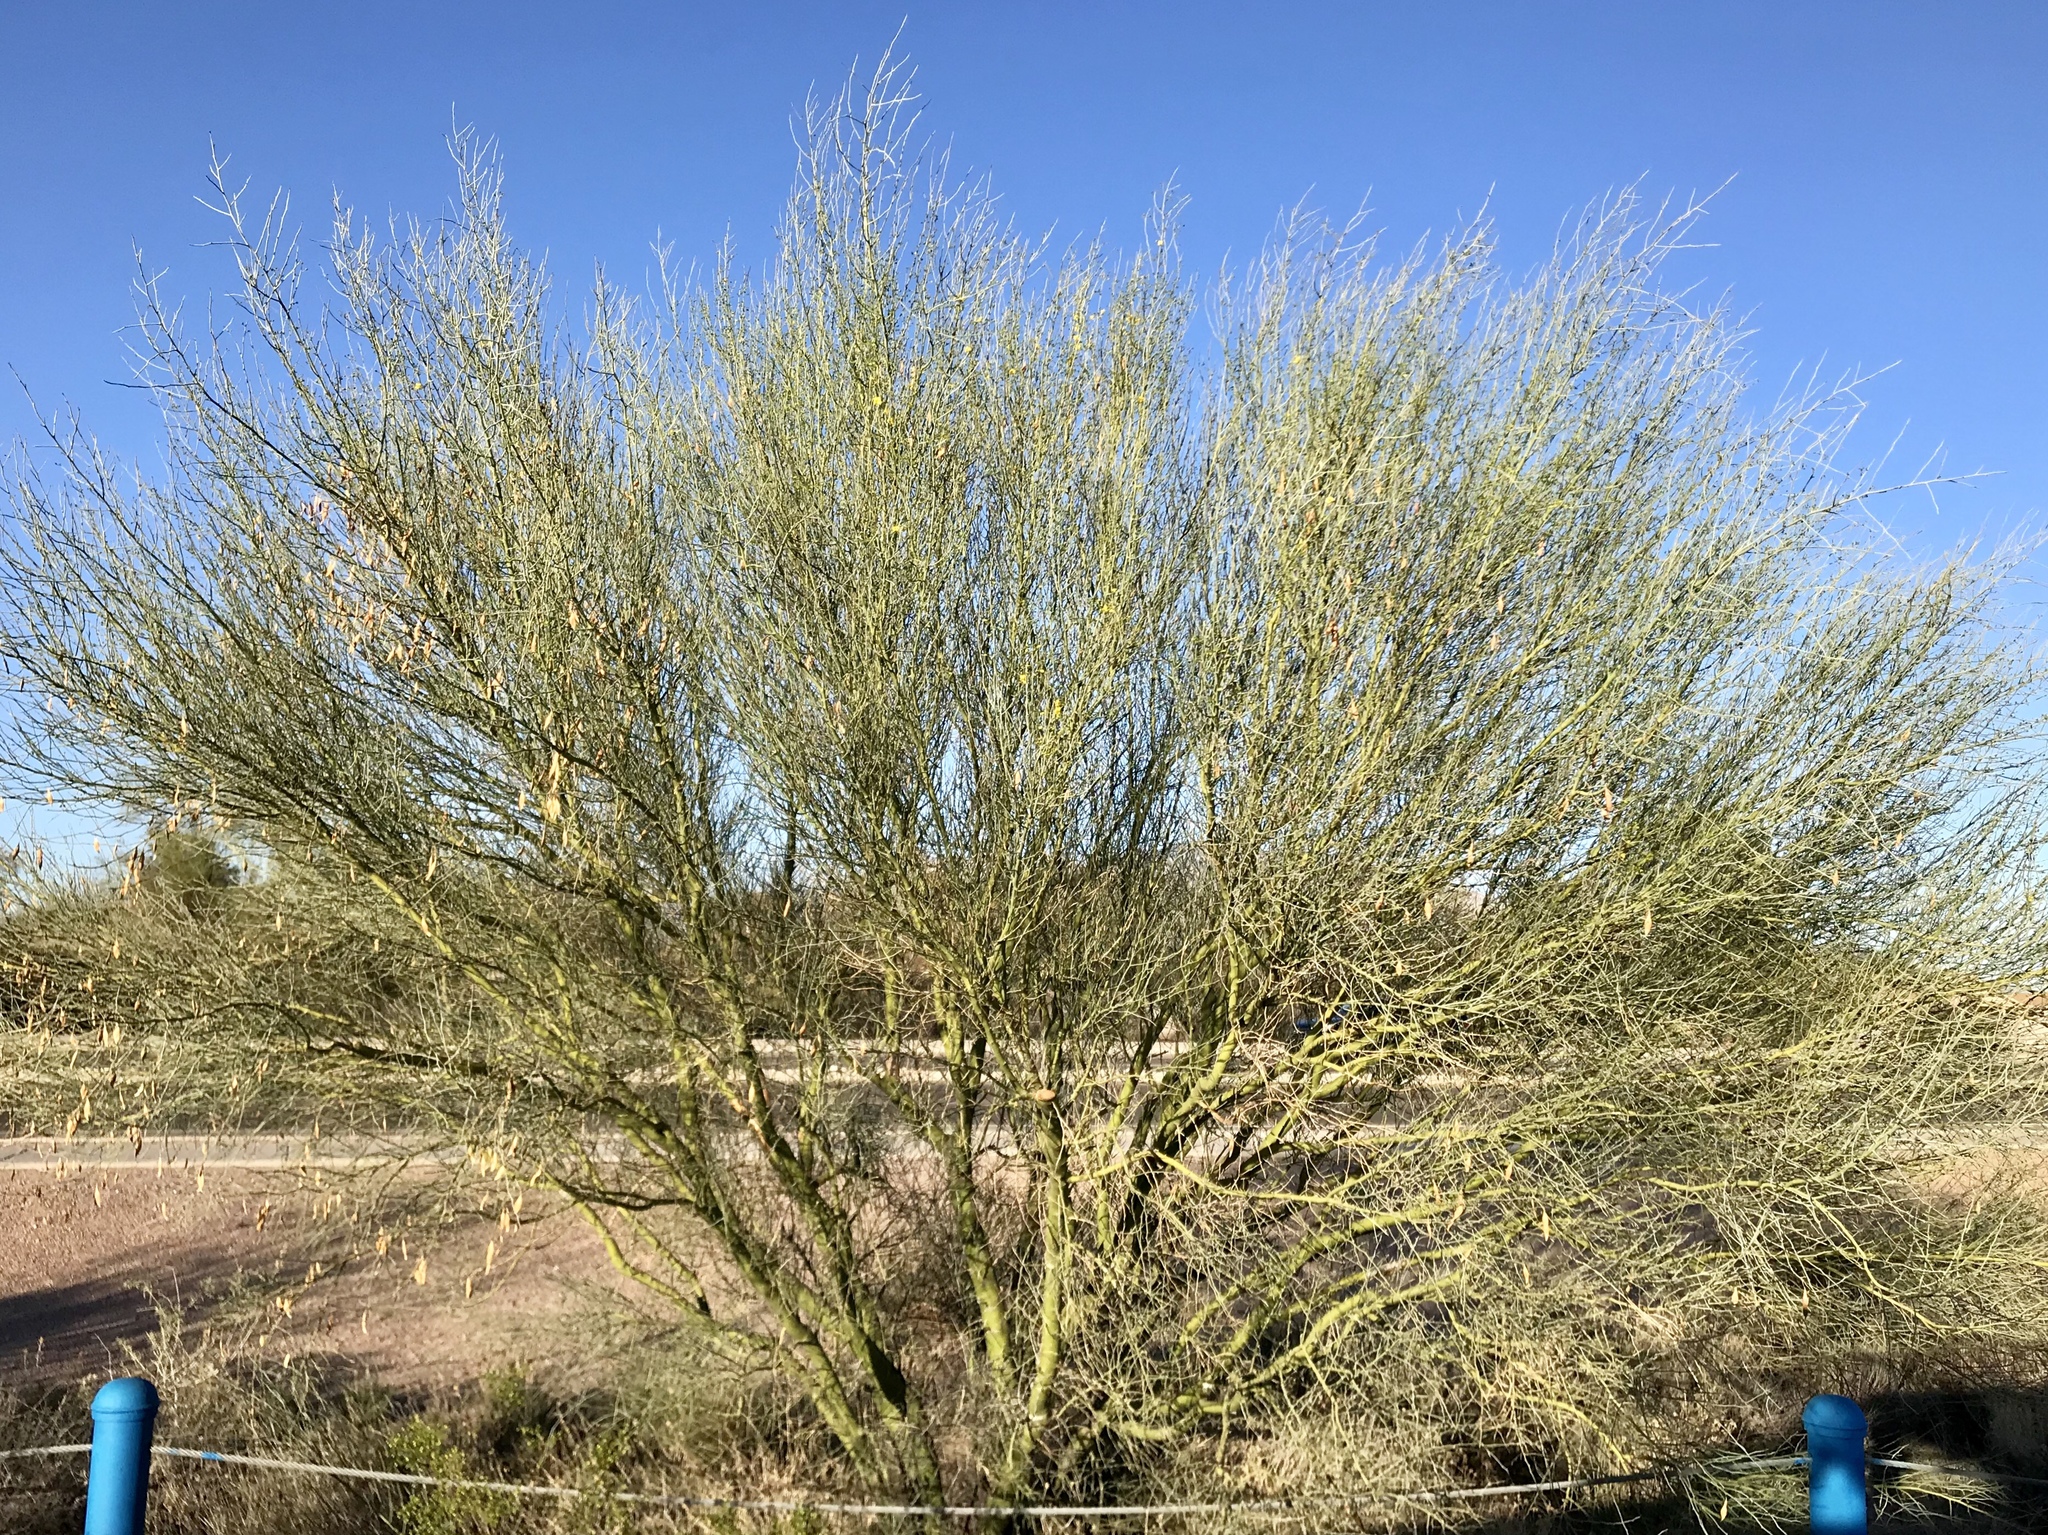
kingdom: Plantae
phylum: Tracheophyta
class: Magnoliopsida
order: Fabales
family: Fabaceae
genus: Parkinsonia
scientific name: Parkinsonia florida
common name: Blue paloverde
